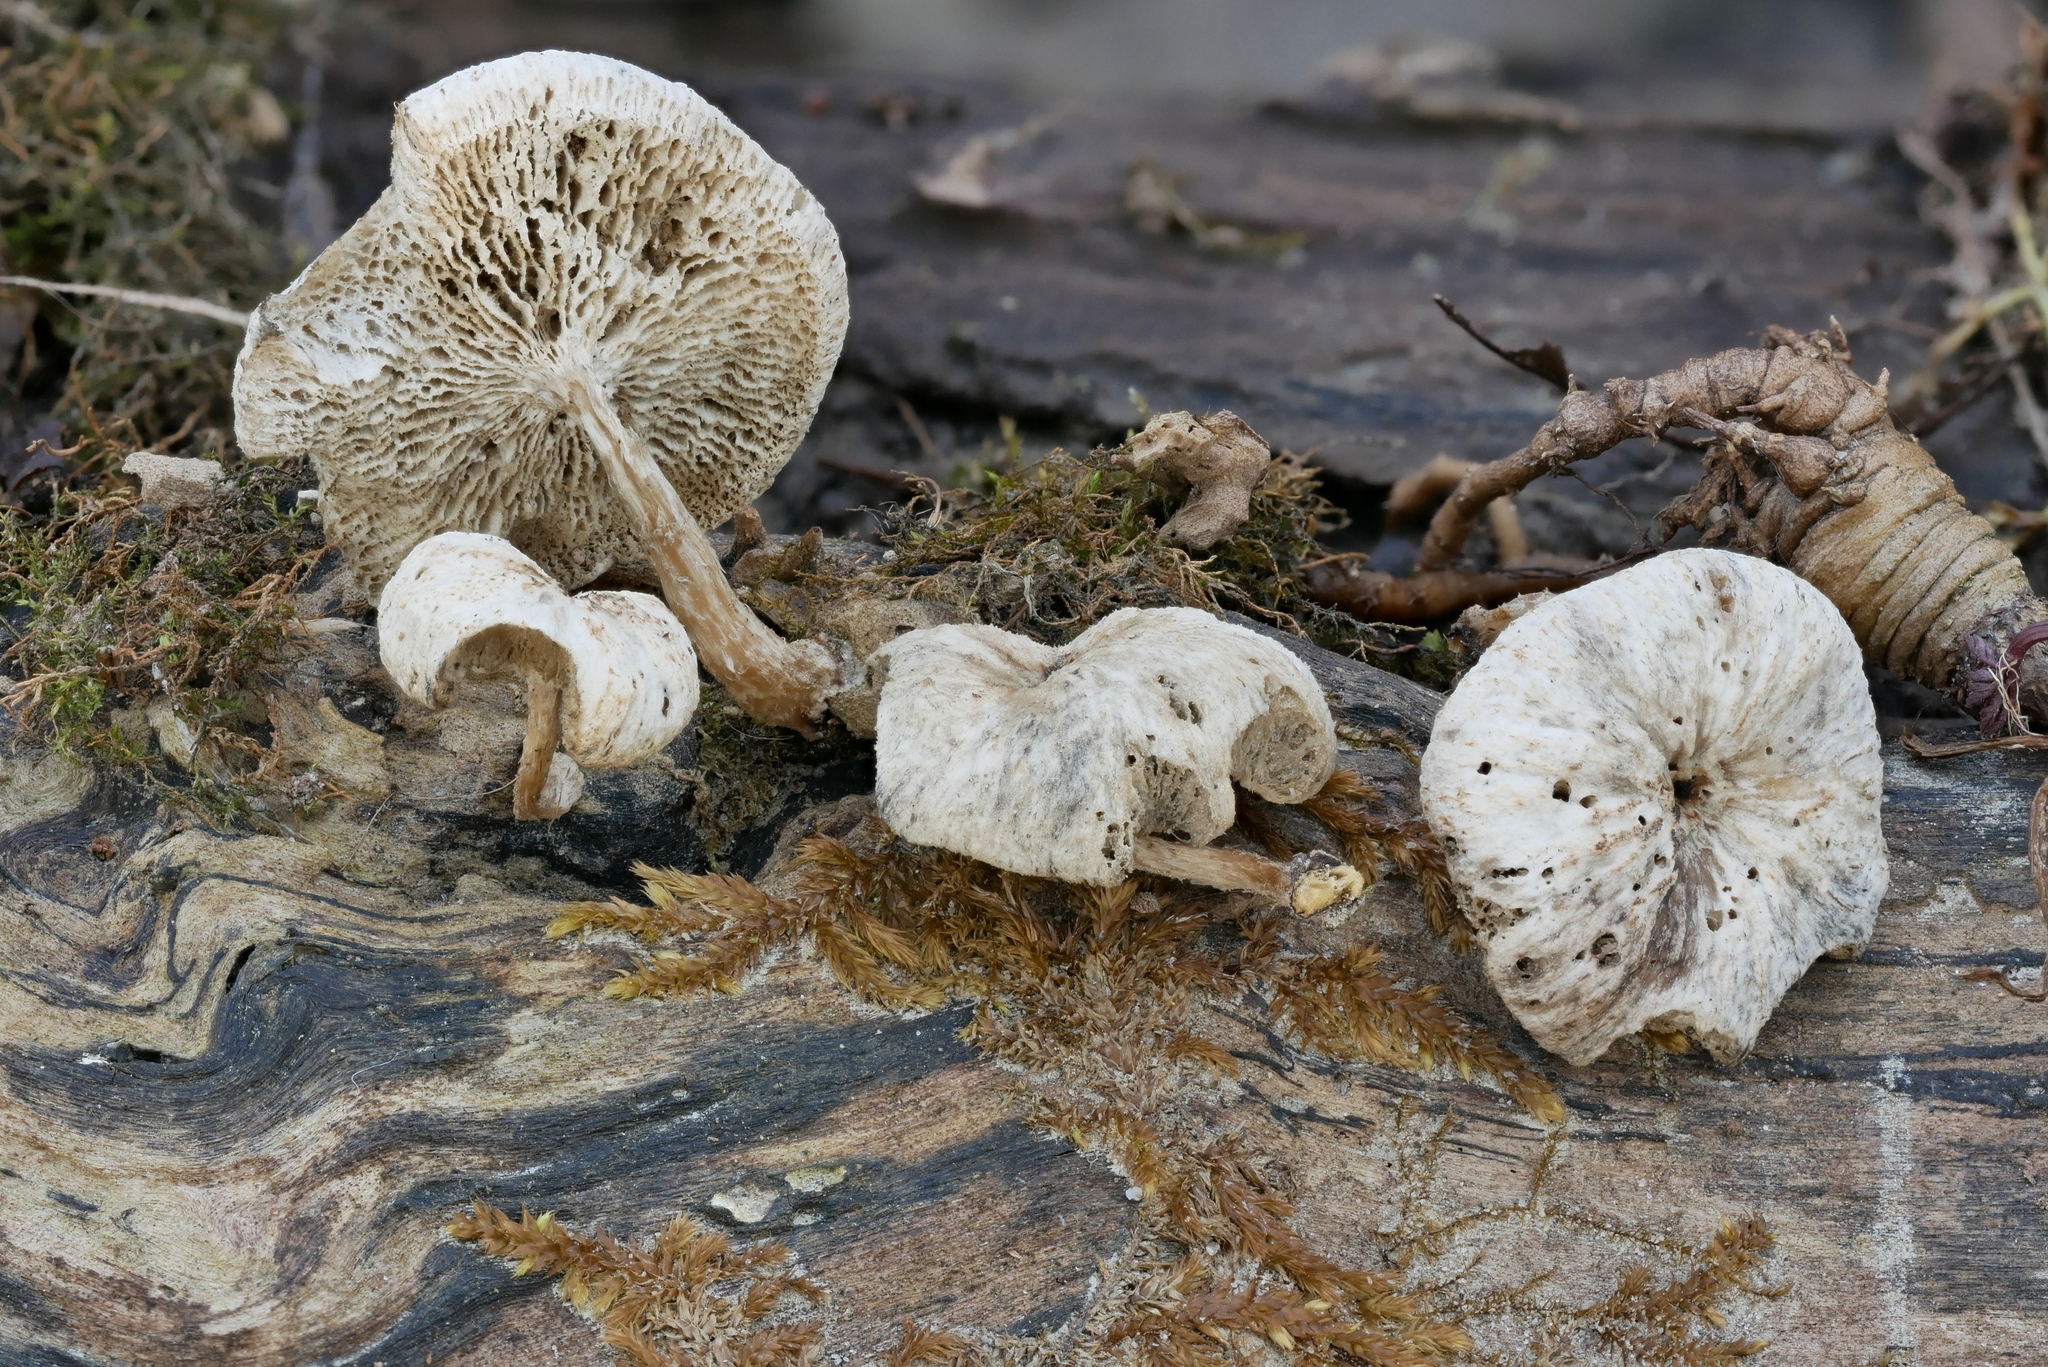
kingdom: Fungi
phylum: Basidiomycota
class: Agaricomycetes
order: Polyporales
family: Polyporaceae
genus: Lentinus
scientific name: Lentinus tigrinus
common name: Tiger sawgill
